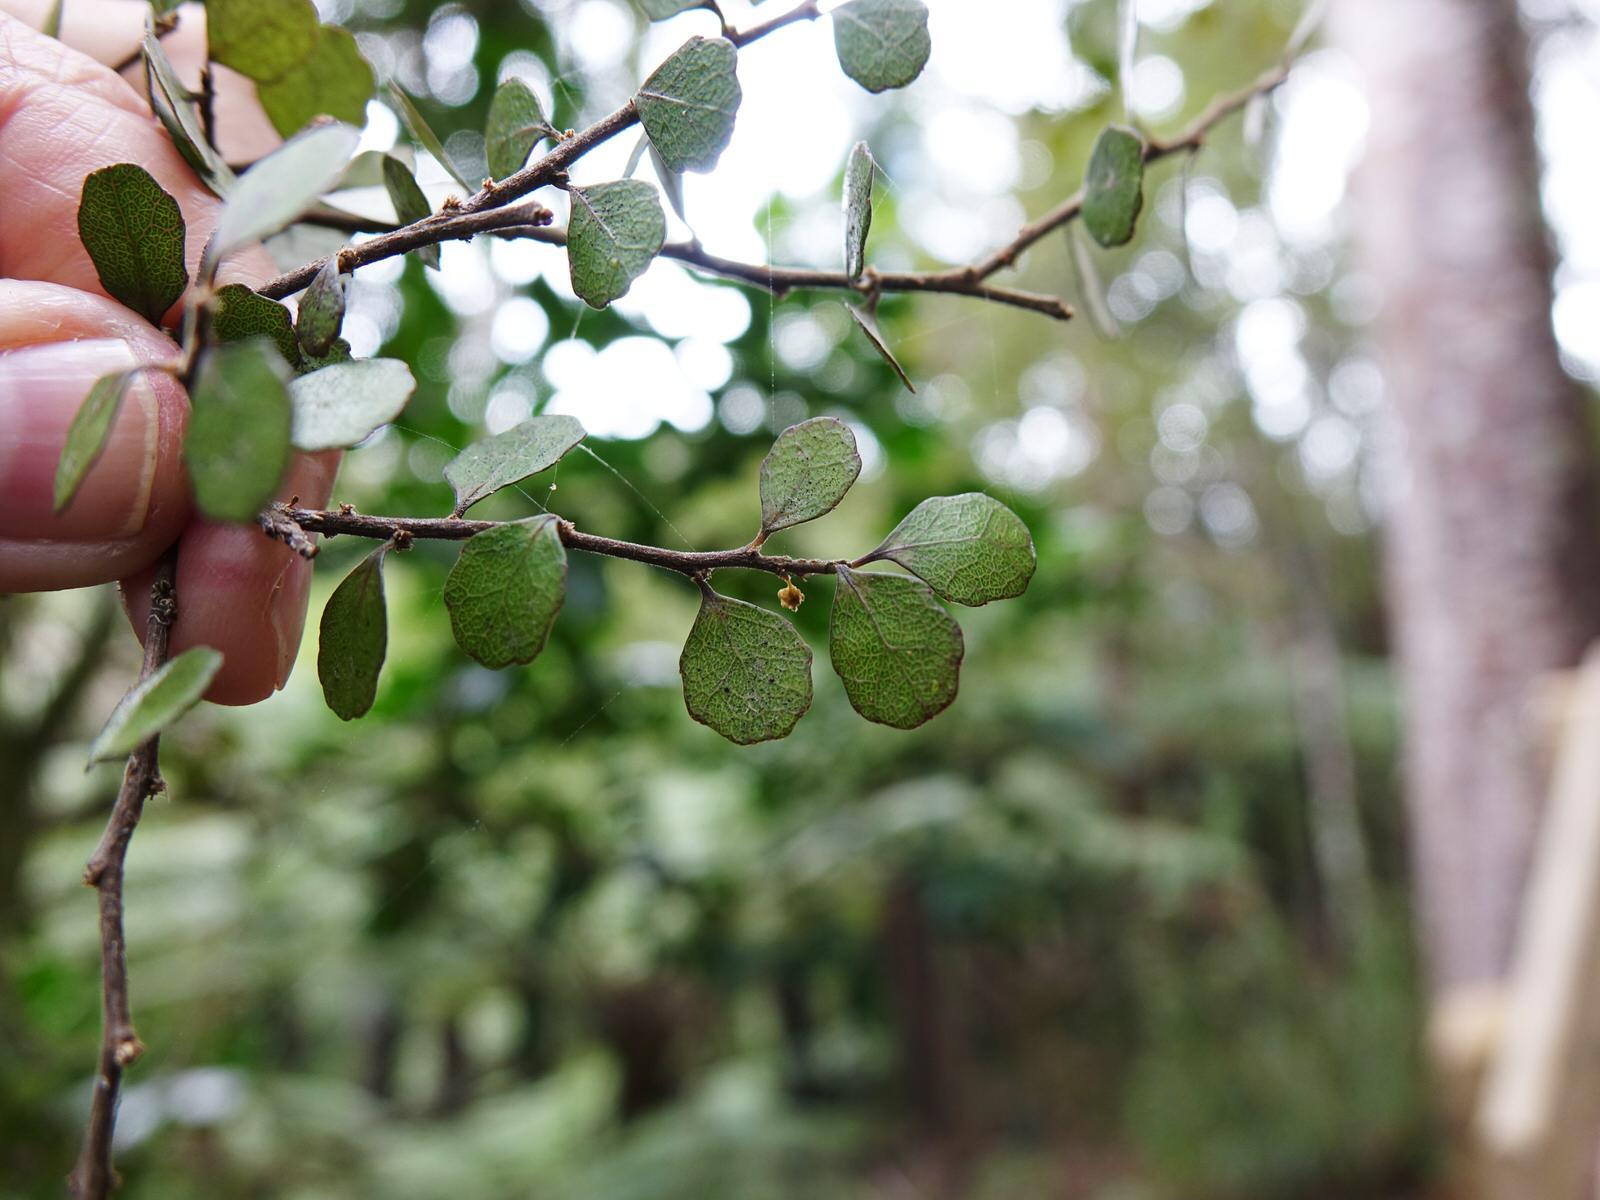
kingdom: Plantae
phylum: Tracheophyta
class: Magnoliopsida
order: Malpighiales
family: Violaceae
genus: Melicytus
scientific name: Melicytus micranthus
